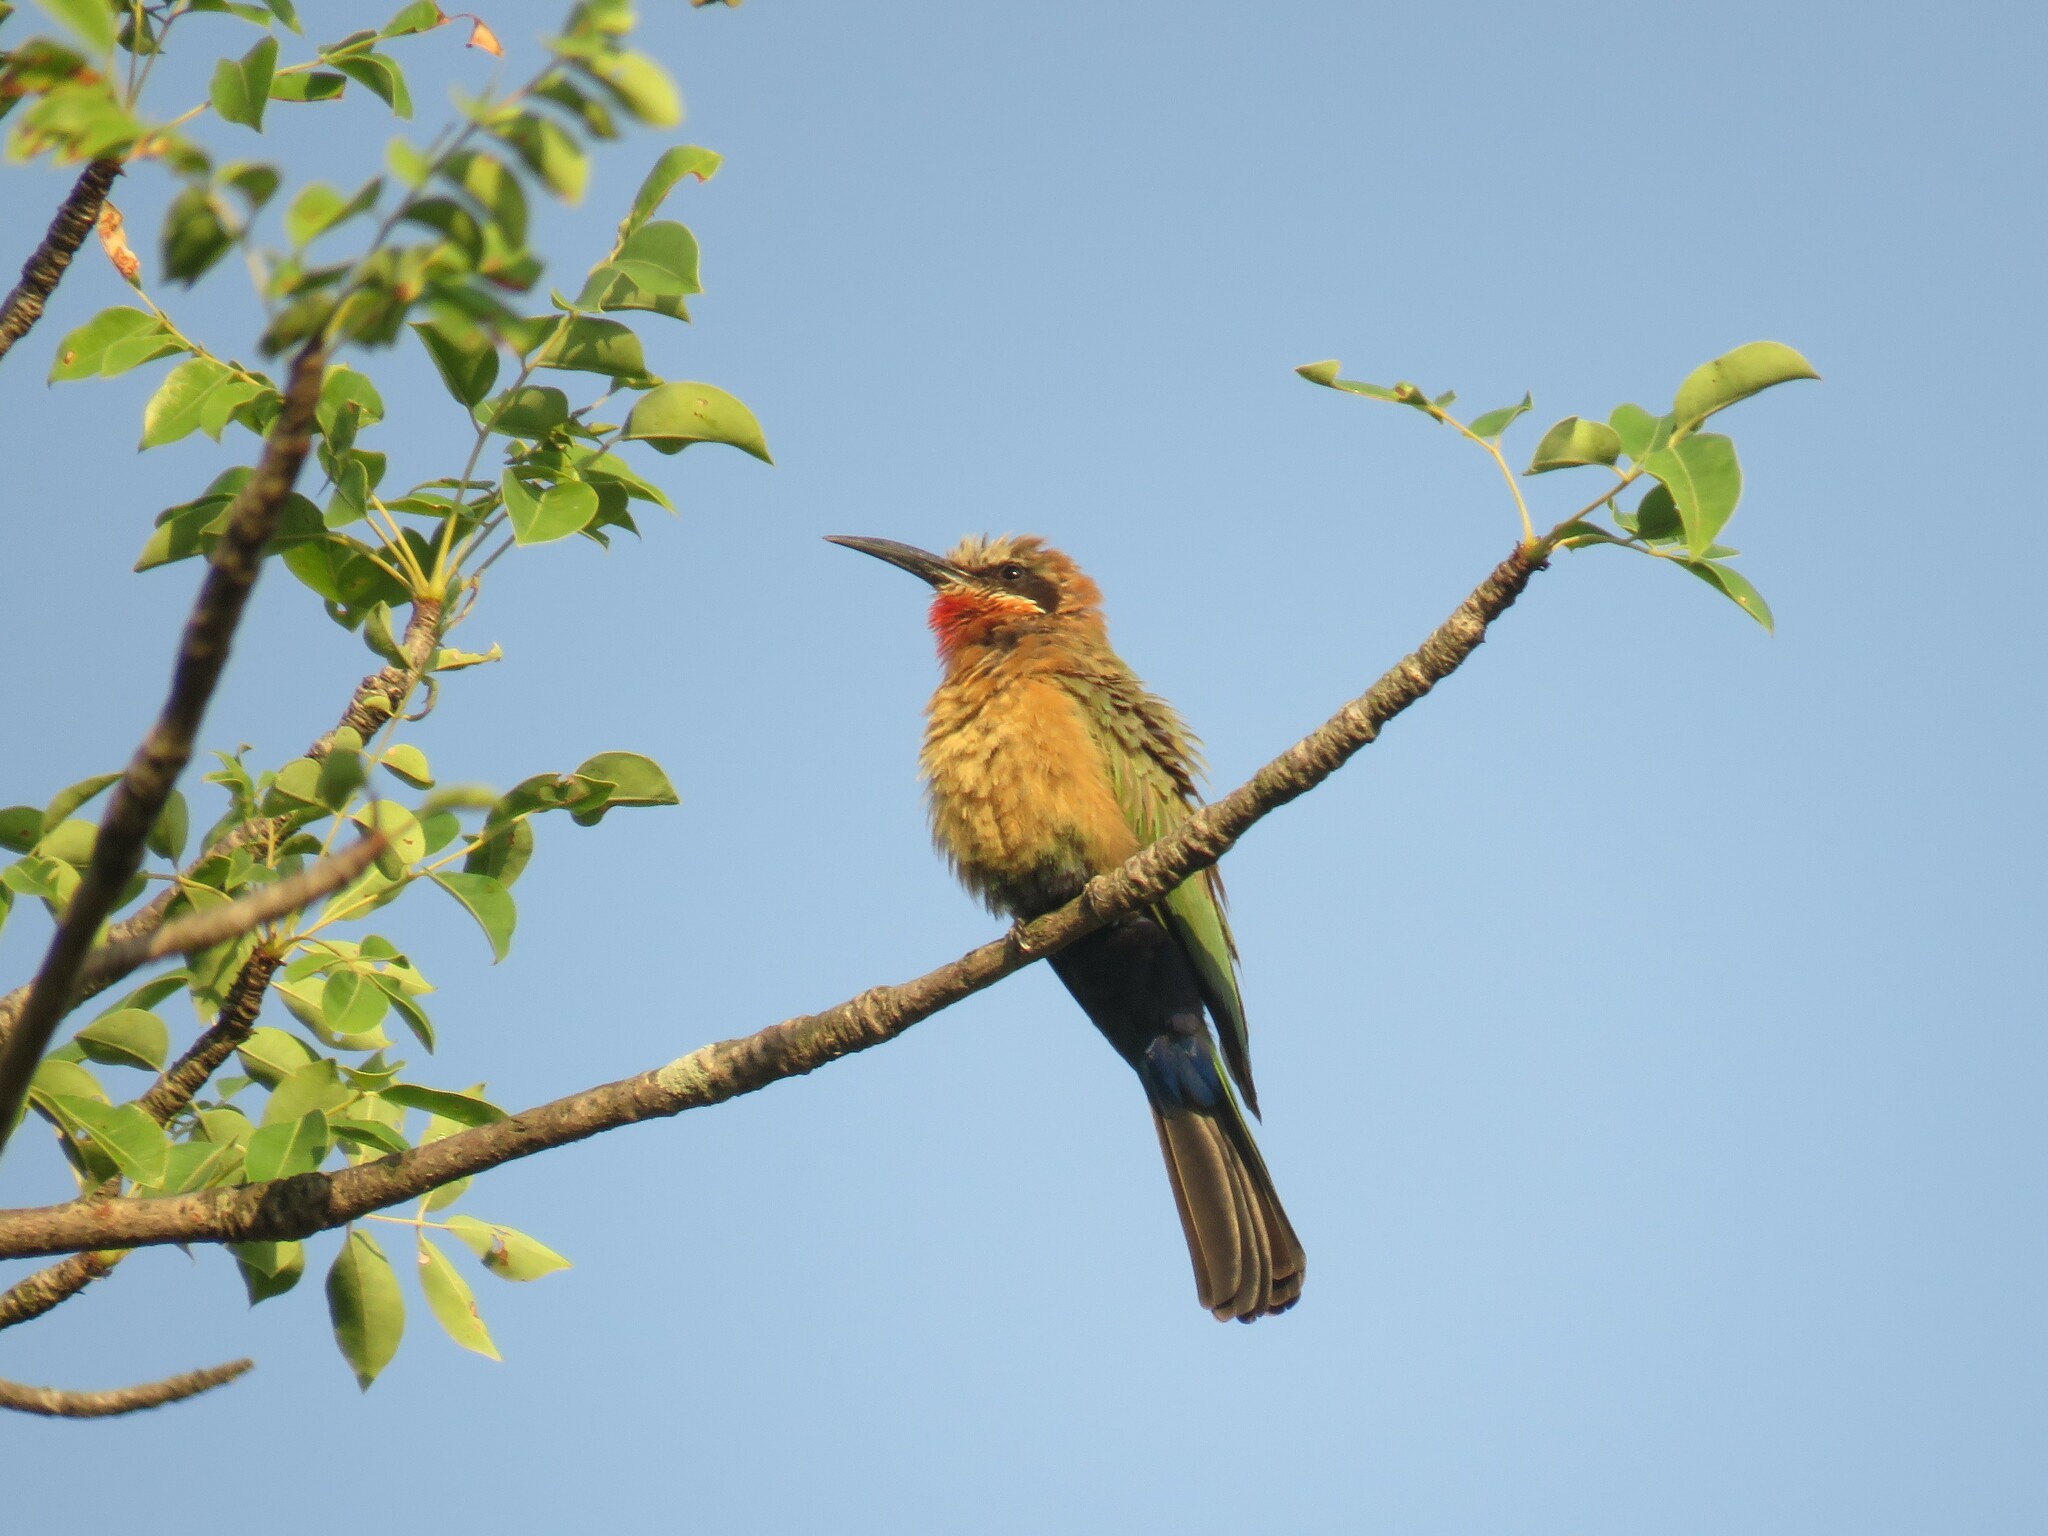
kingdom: Animalia
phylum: Chordata
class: Aves
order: Coraciiformes
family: Meropidae
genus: Merops
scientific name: Merops bullockoides
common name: White-fronted bee-eater
